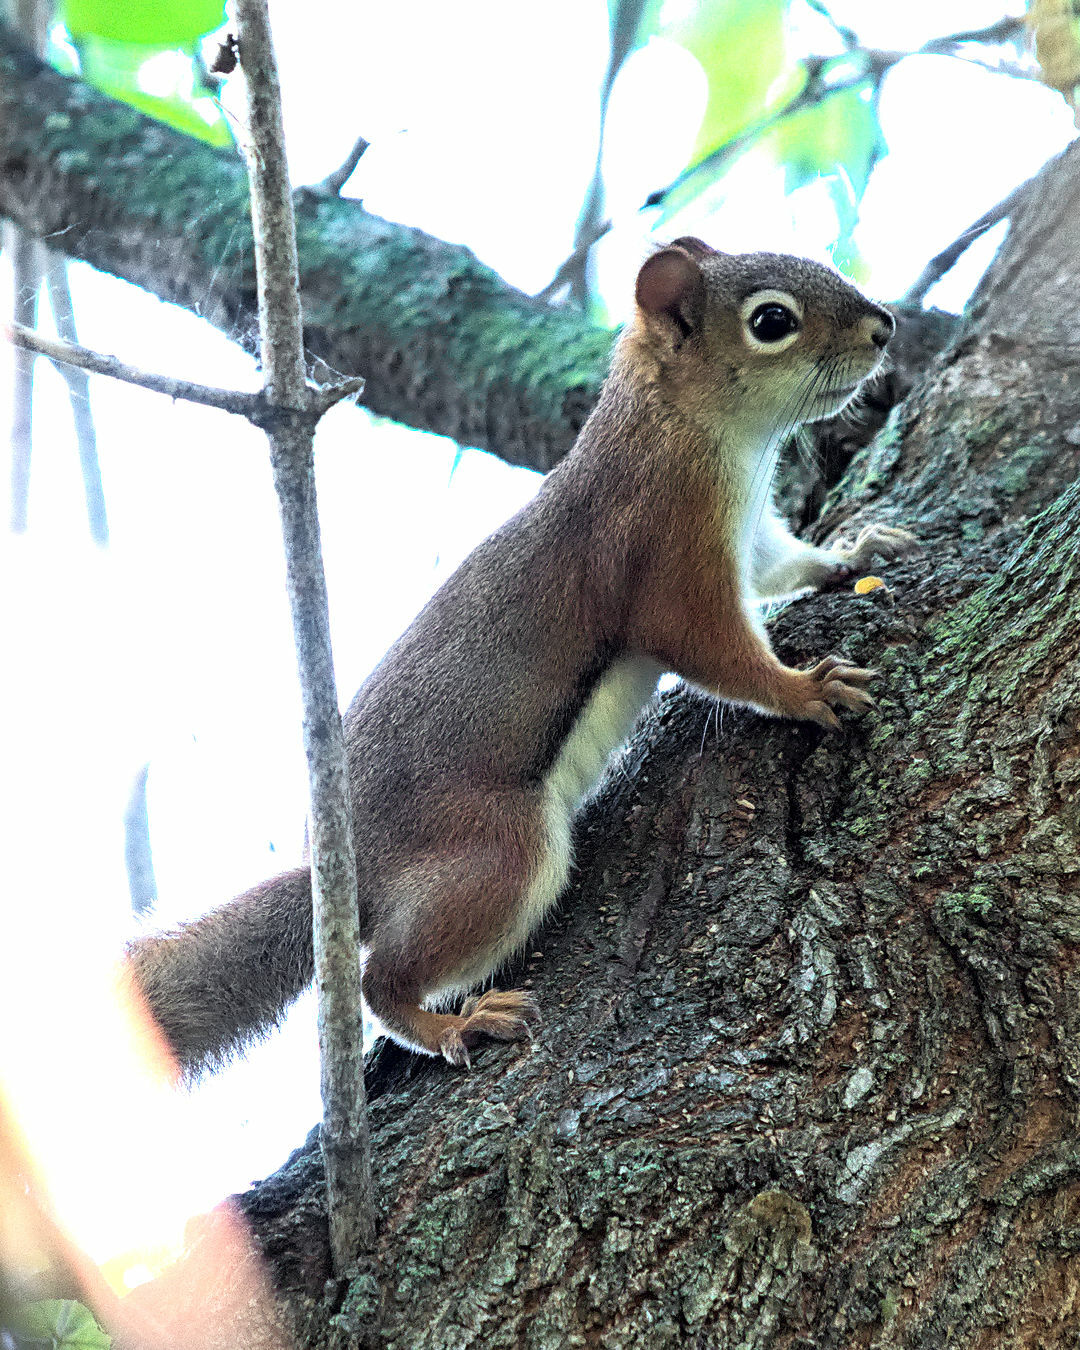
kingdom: Animalia
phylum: Chordata
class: Mammalia
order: Rodentia
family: Sciuridae
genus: Tamiasciurus
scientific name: Tamiasciurus hudsonicus
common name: Red squirrel
